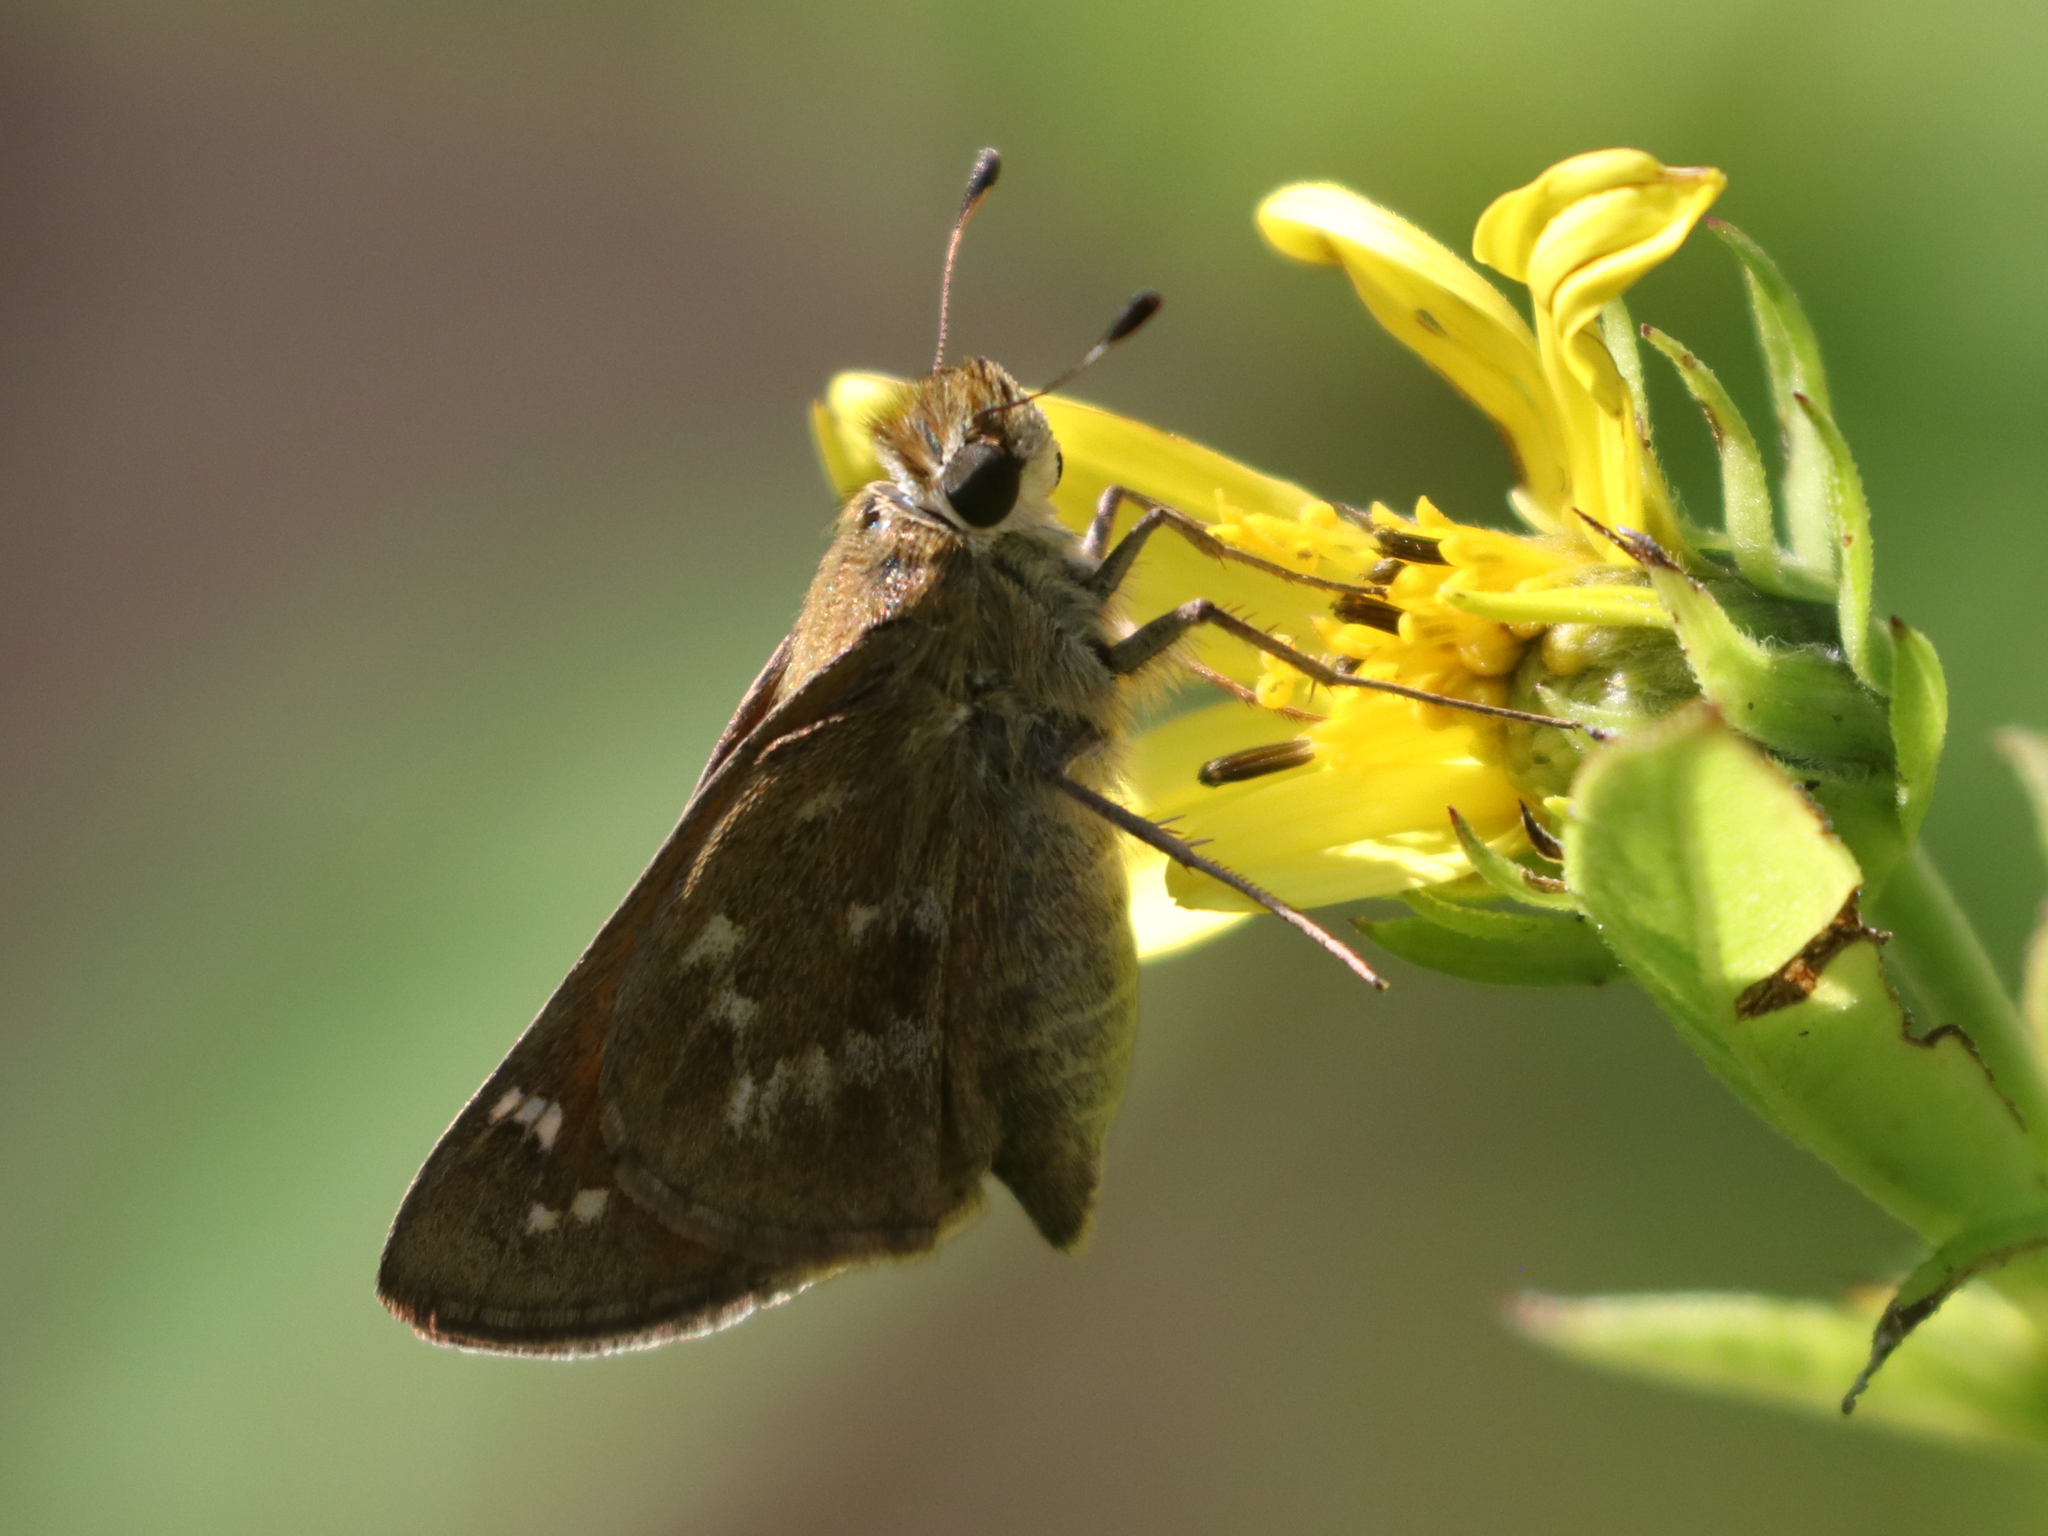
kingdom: Animalia
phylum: Arthropoda
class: Insecta
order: Lepidoptera
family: Hesperiidae
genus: Atalopedes
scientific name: Atalopedes
